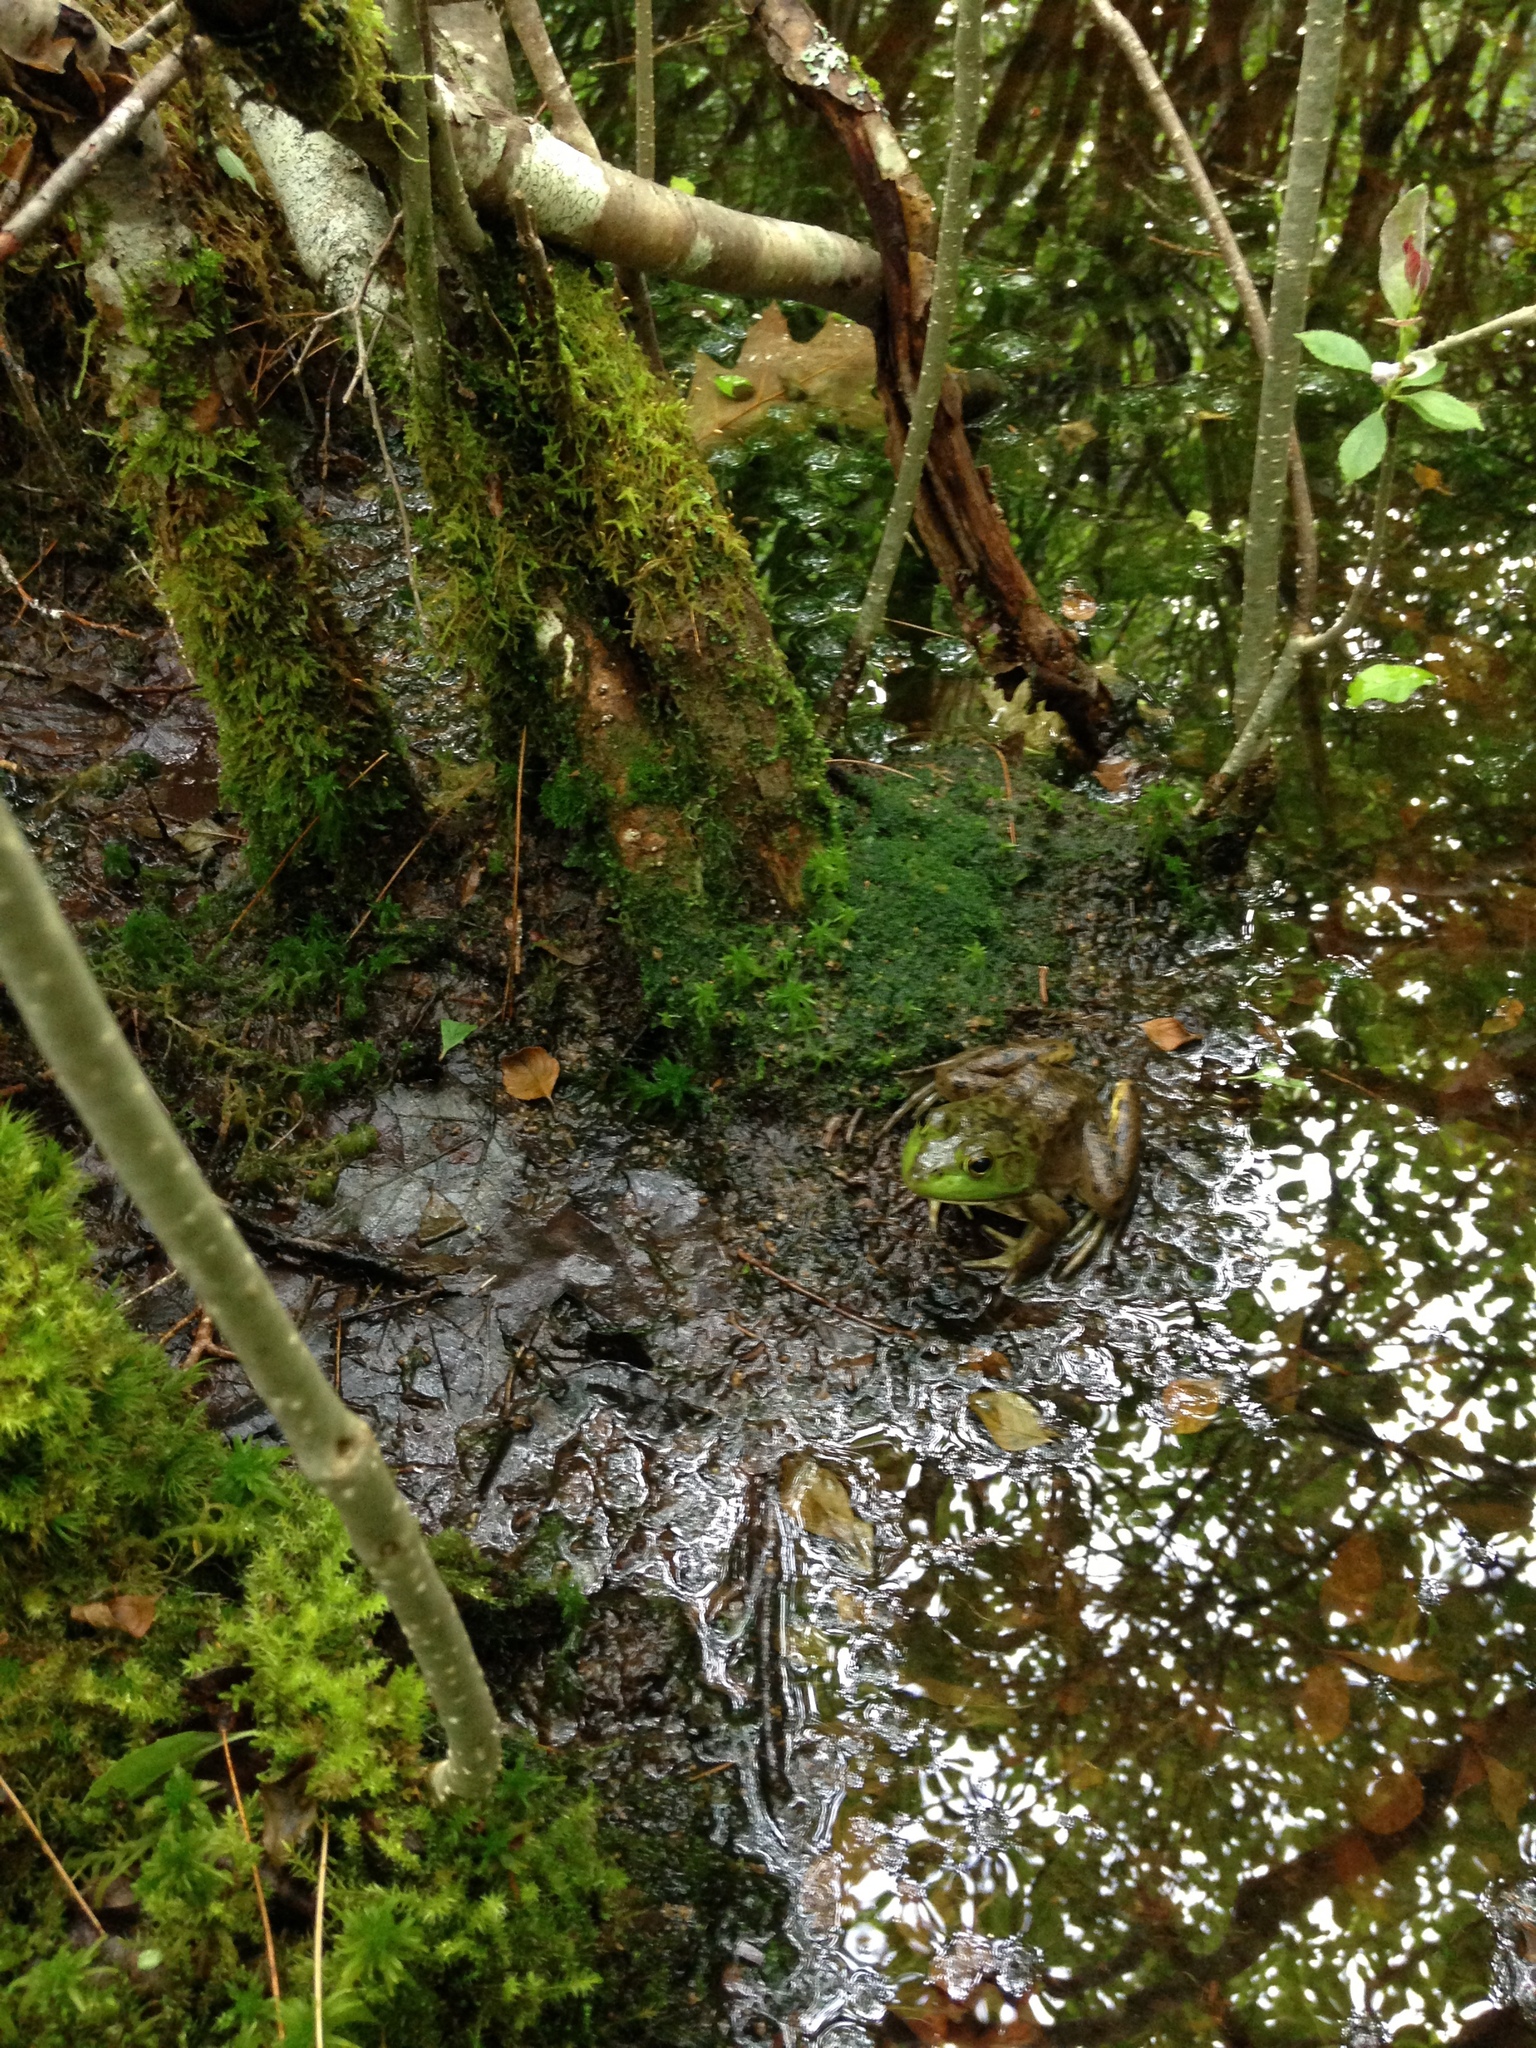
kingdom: Animalia
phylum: Chordata
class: Amphibia
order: Anura
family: Ranidae
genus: Lithobates
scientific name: Lithobates catesbeianus
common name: American bullfrog
